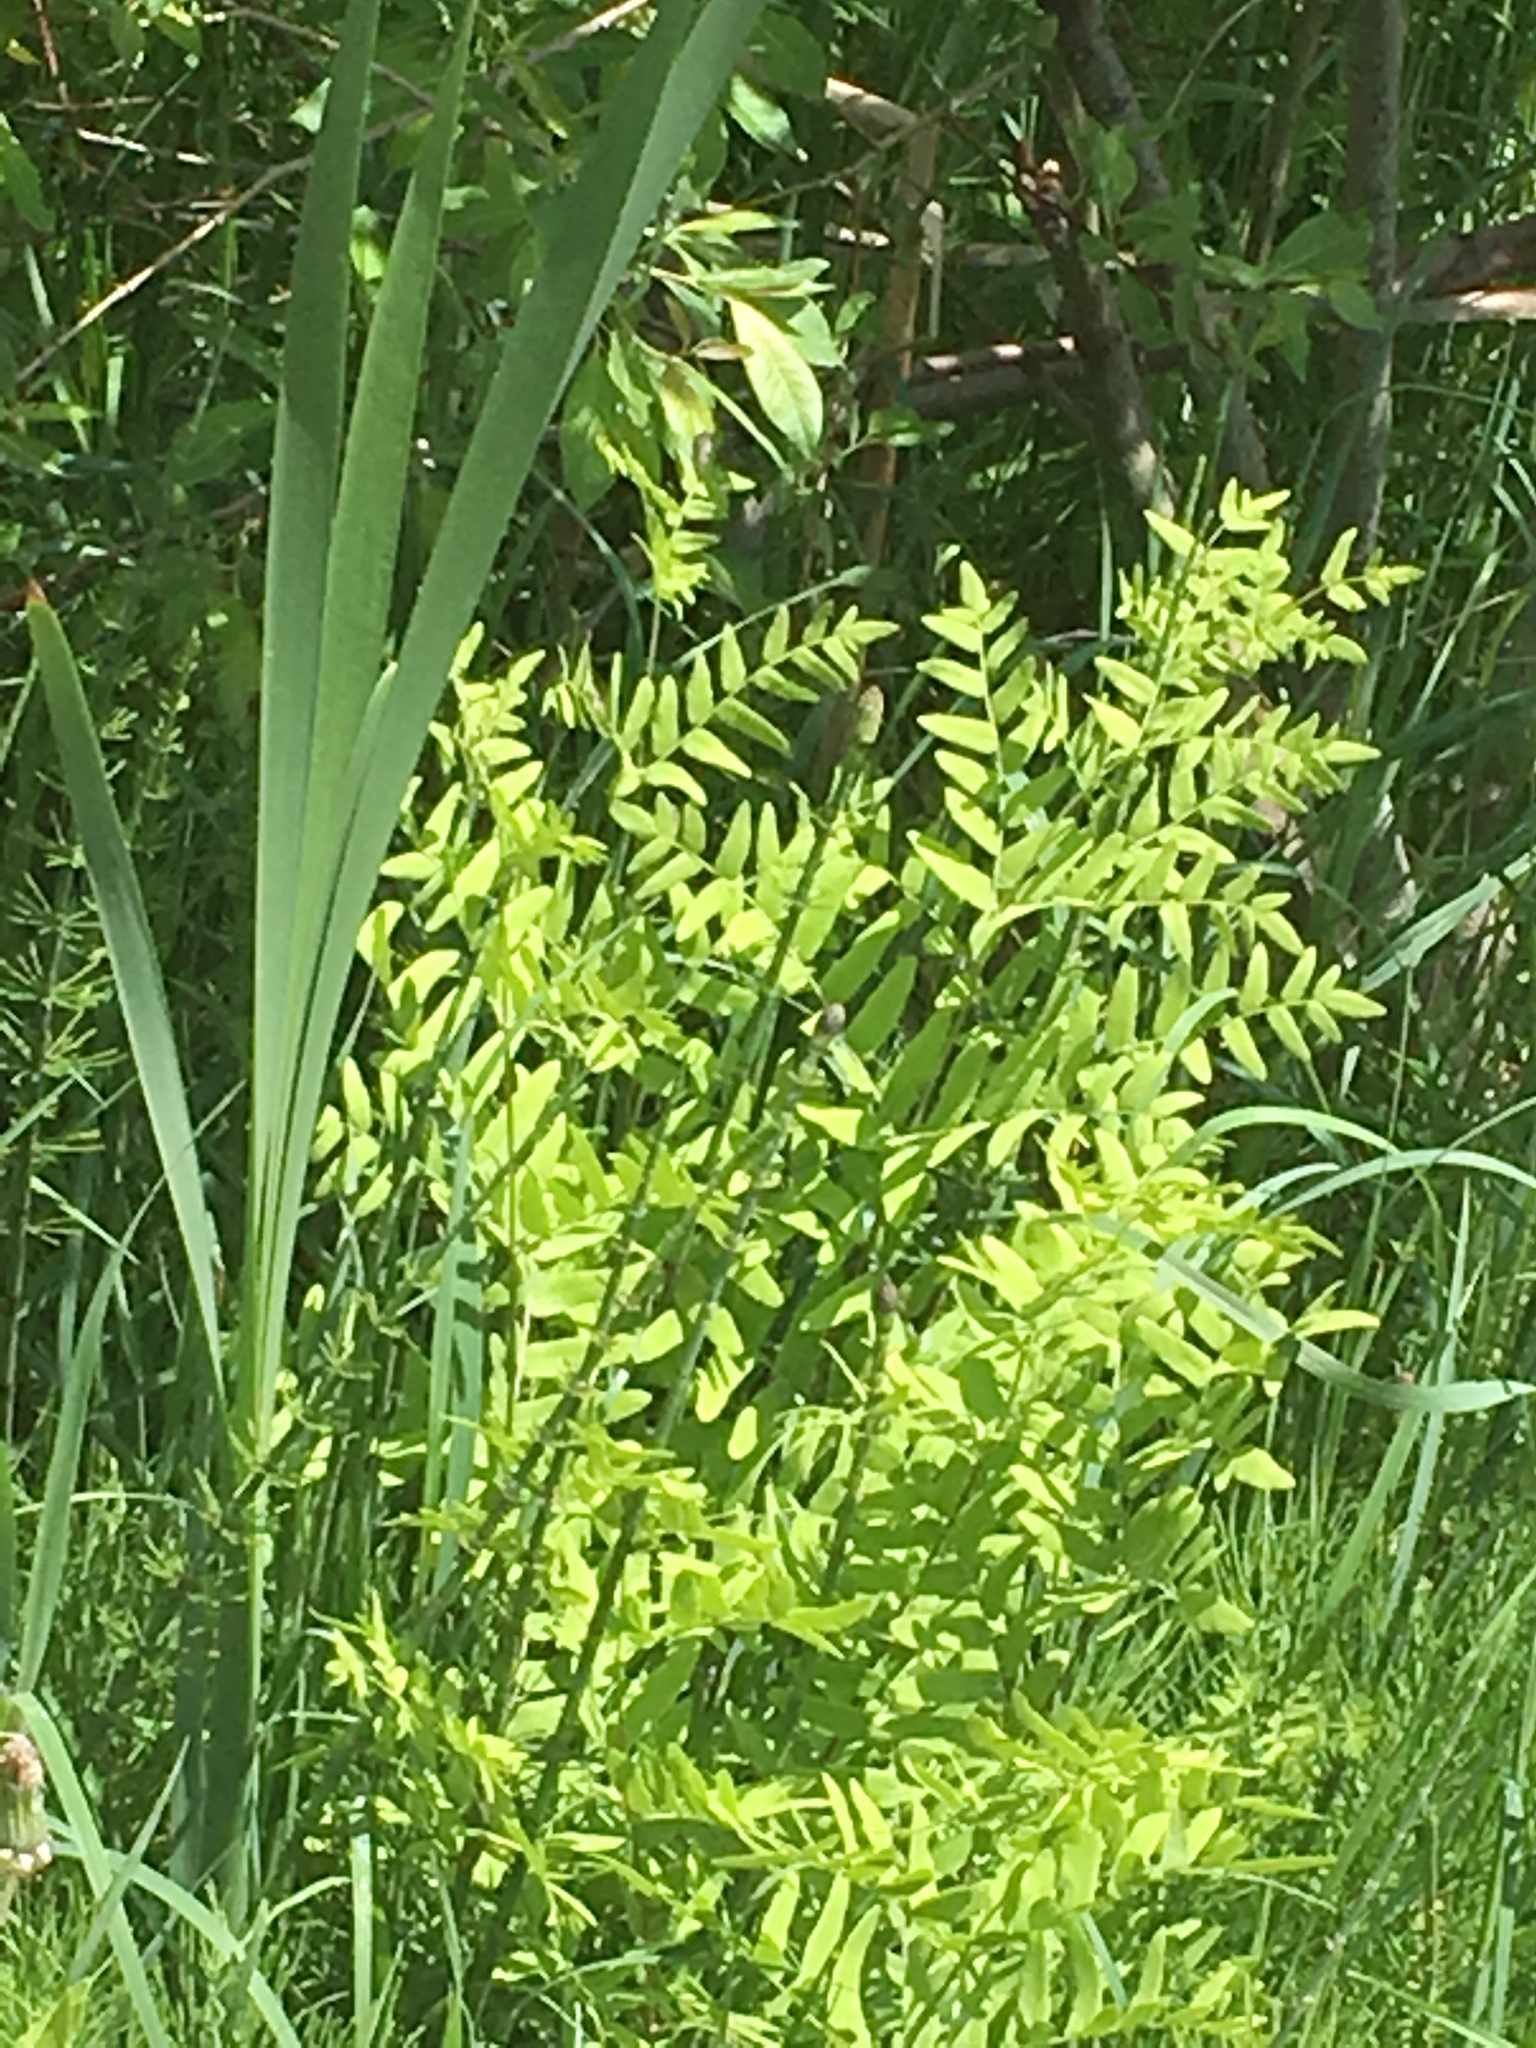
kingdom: Plantae
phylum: Tracheophyta
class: Polypodiopsida
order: Osmundales
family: Osmundaceae
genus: Osmunda
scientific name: Osmunda spectabilis
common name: American royal fern
